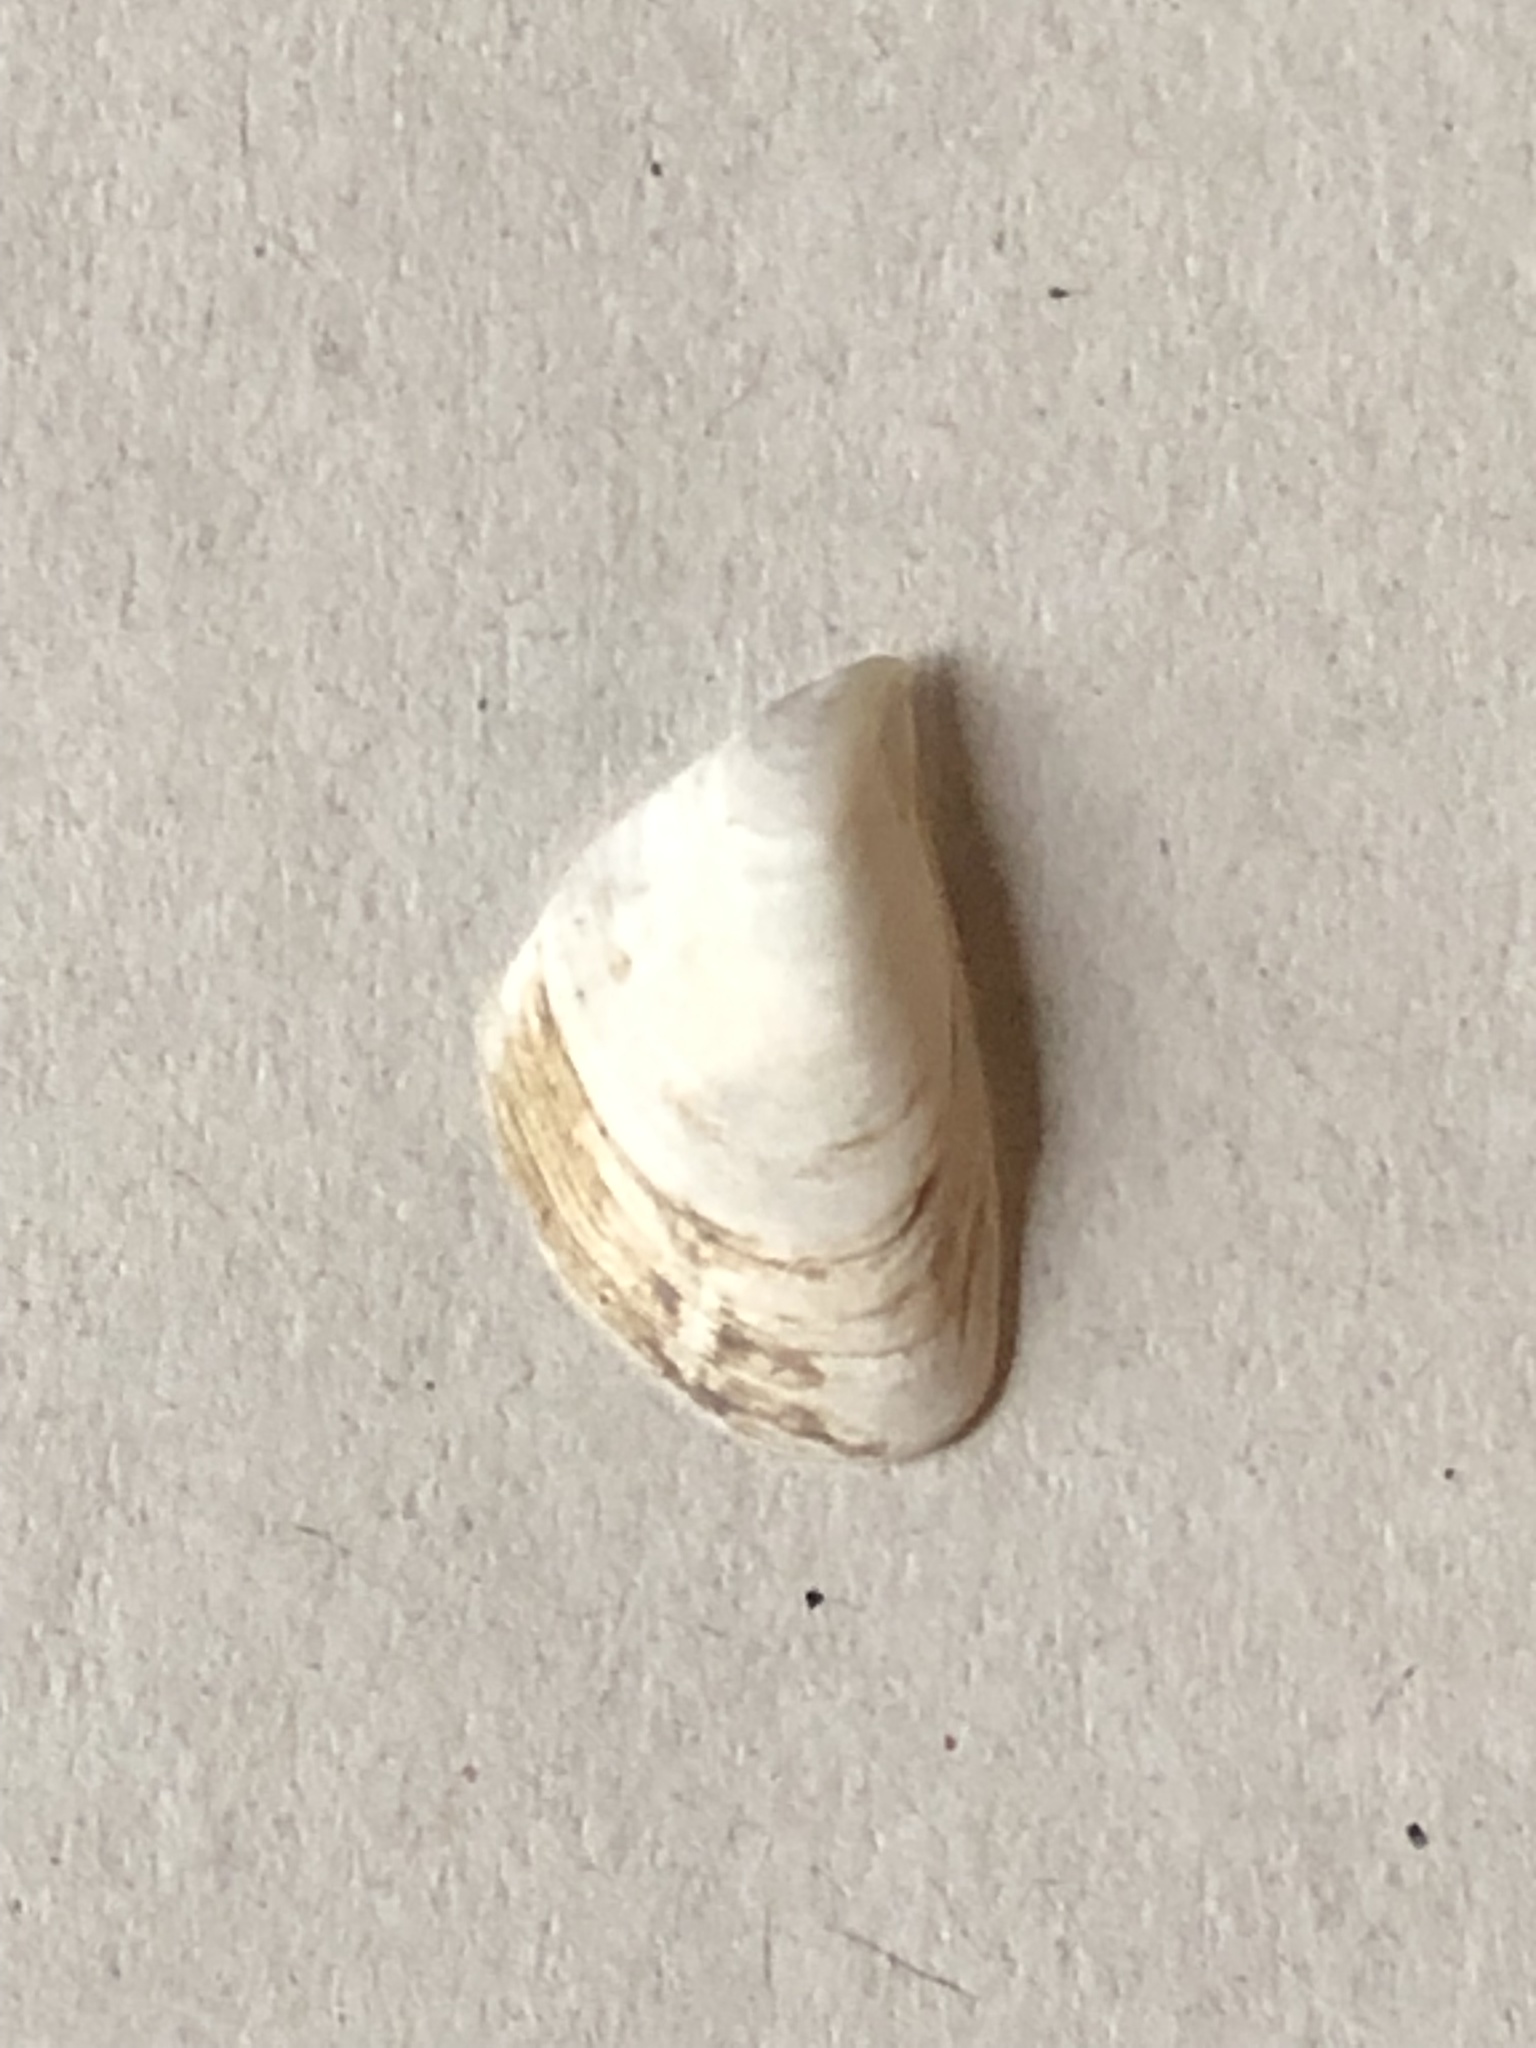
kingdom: Animalia
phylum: Mollusca
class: Bivalvia
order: Myida
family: Dreissenidae
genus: Dreissena
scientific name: Dreissena bugensis
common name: Quagga mussel
